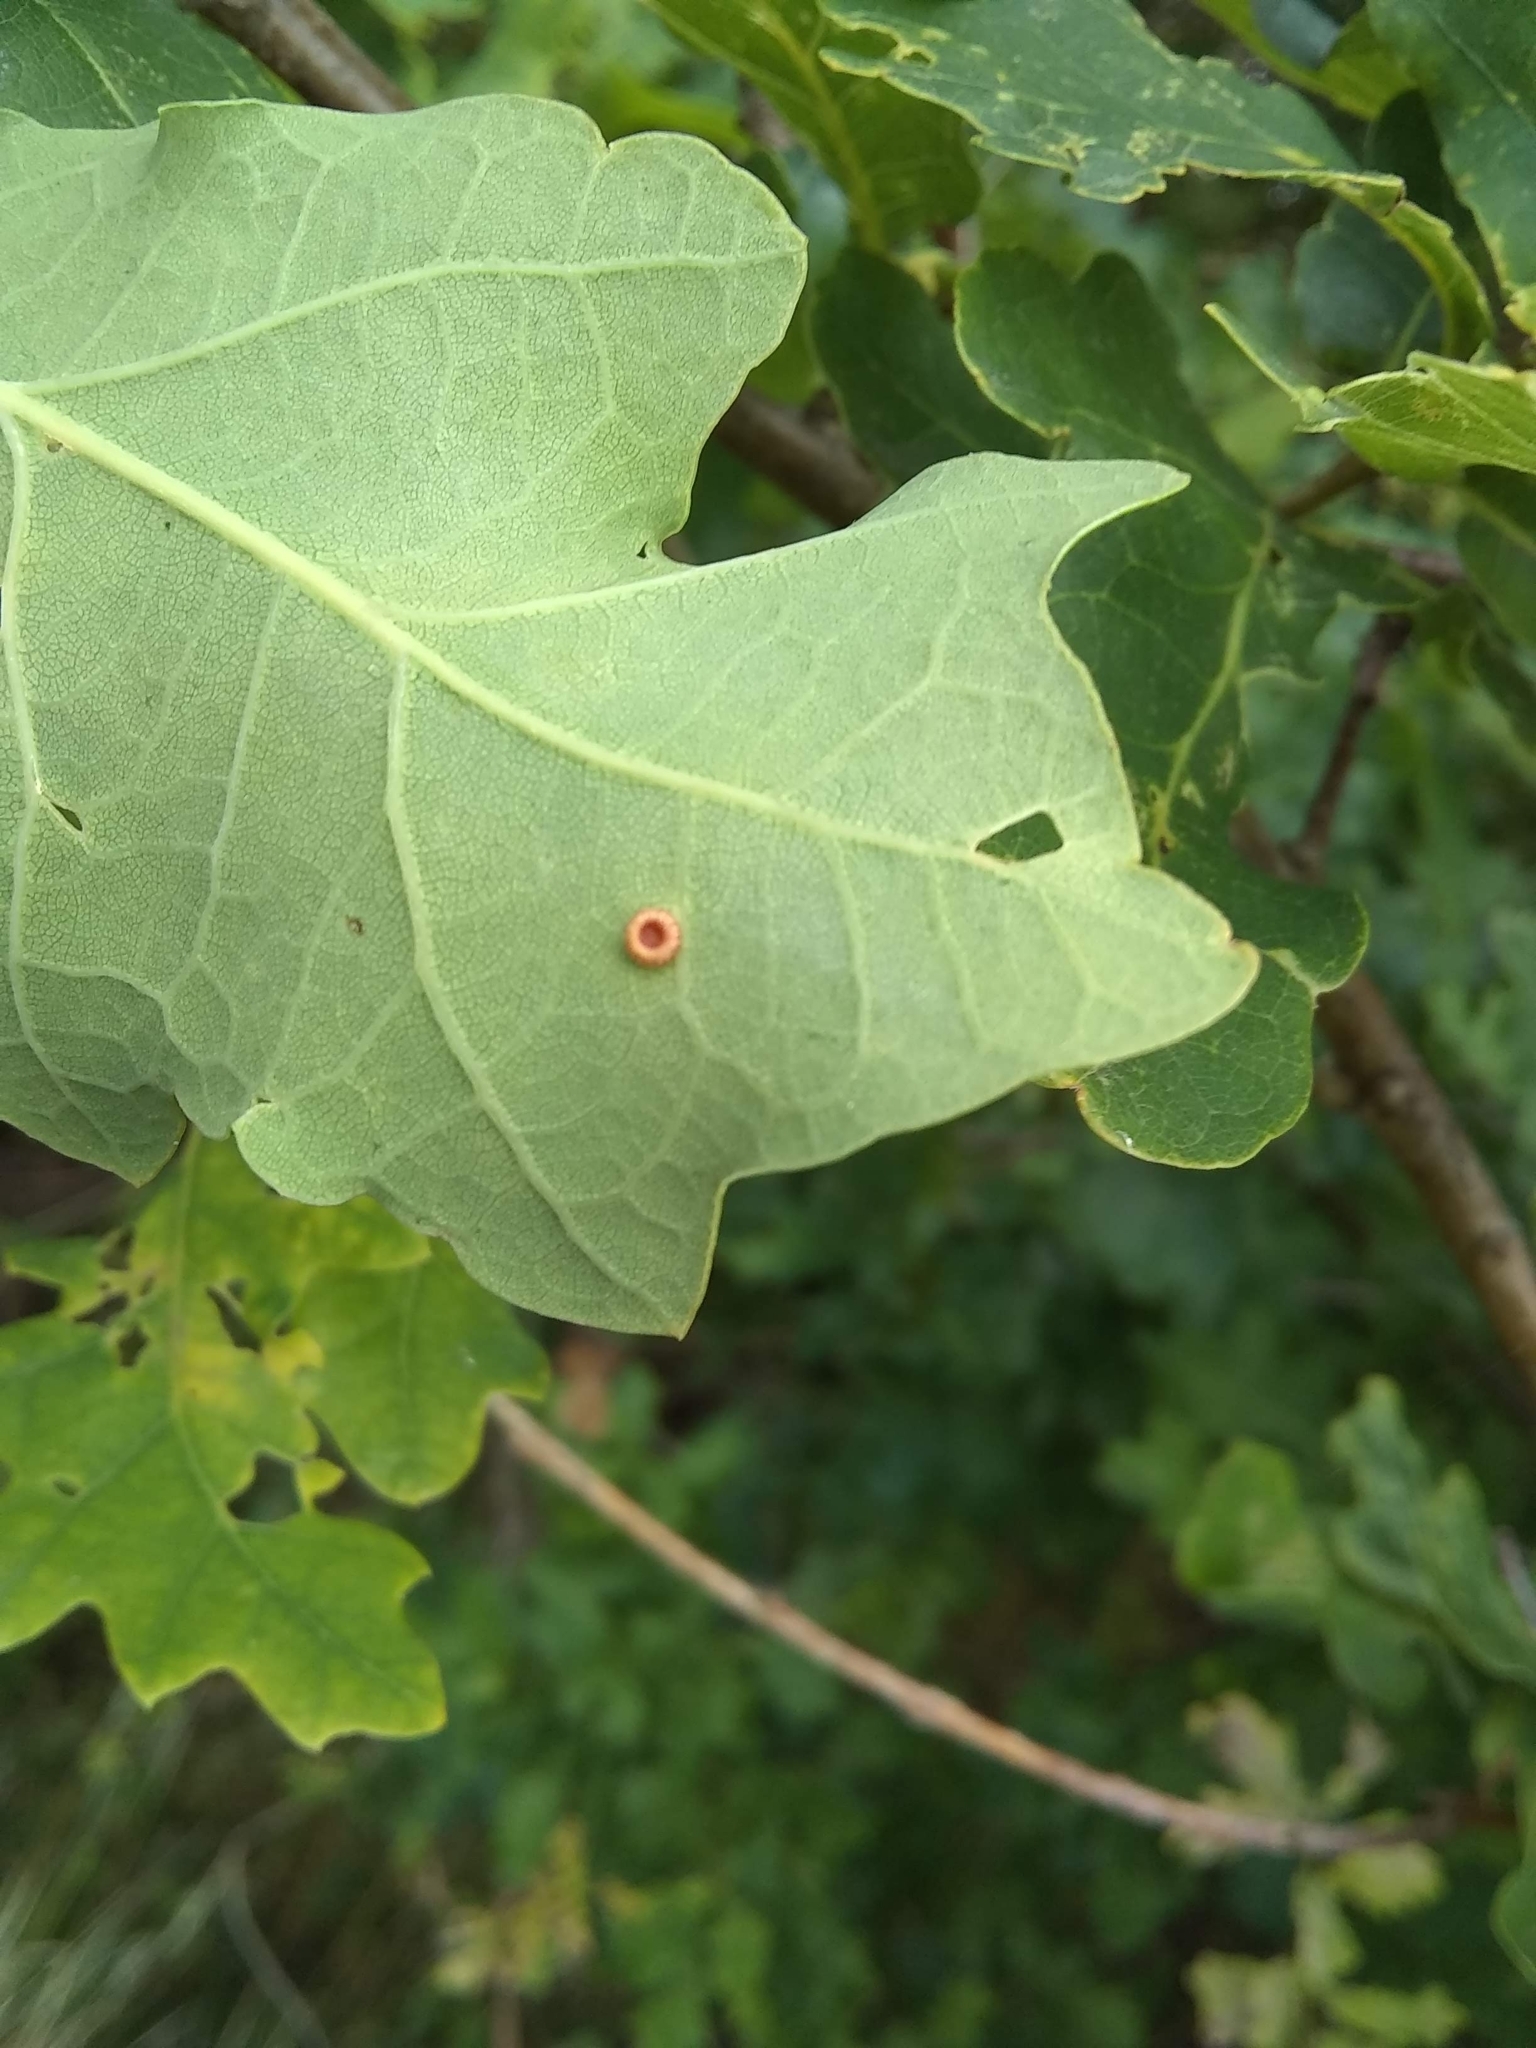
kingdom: Animalia
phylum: Arthropoda
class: Insecta
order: Hymenoptera
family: Cynipidae
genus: Neuroterus
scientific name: Neuroterus numismalis
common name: Silk-button spangle gall
